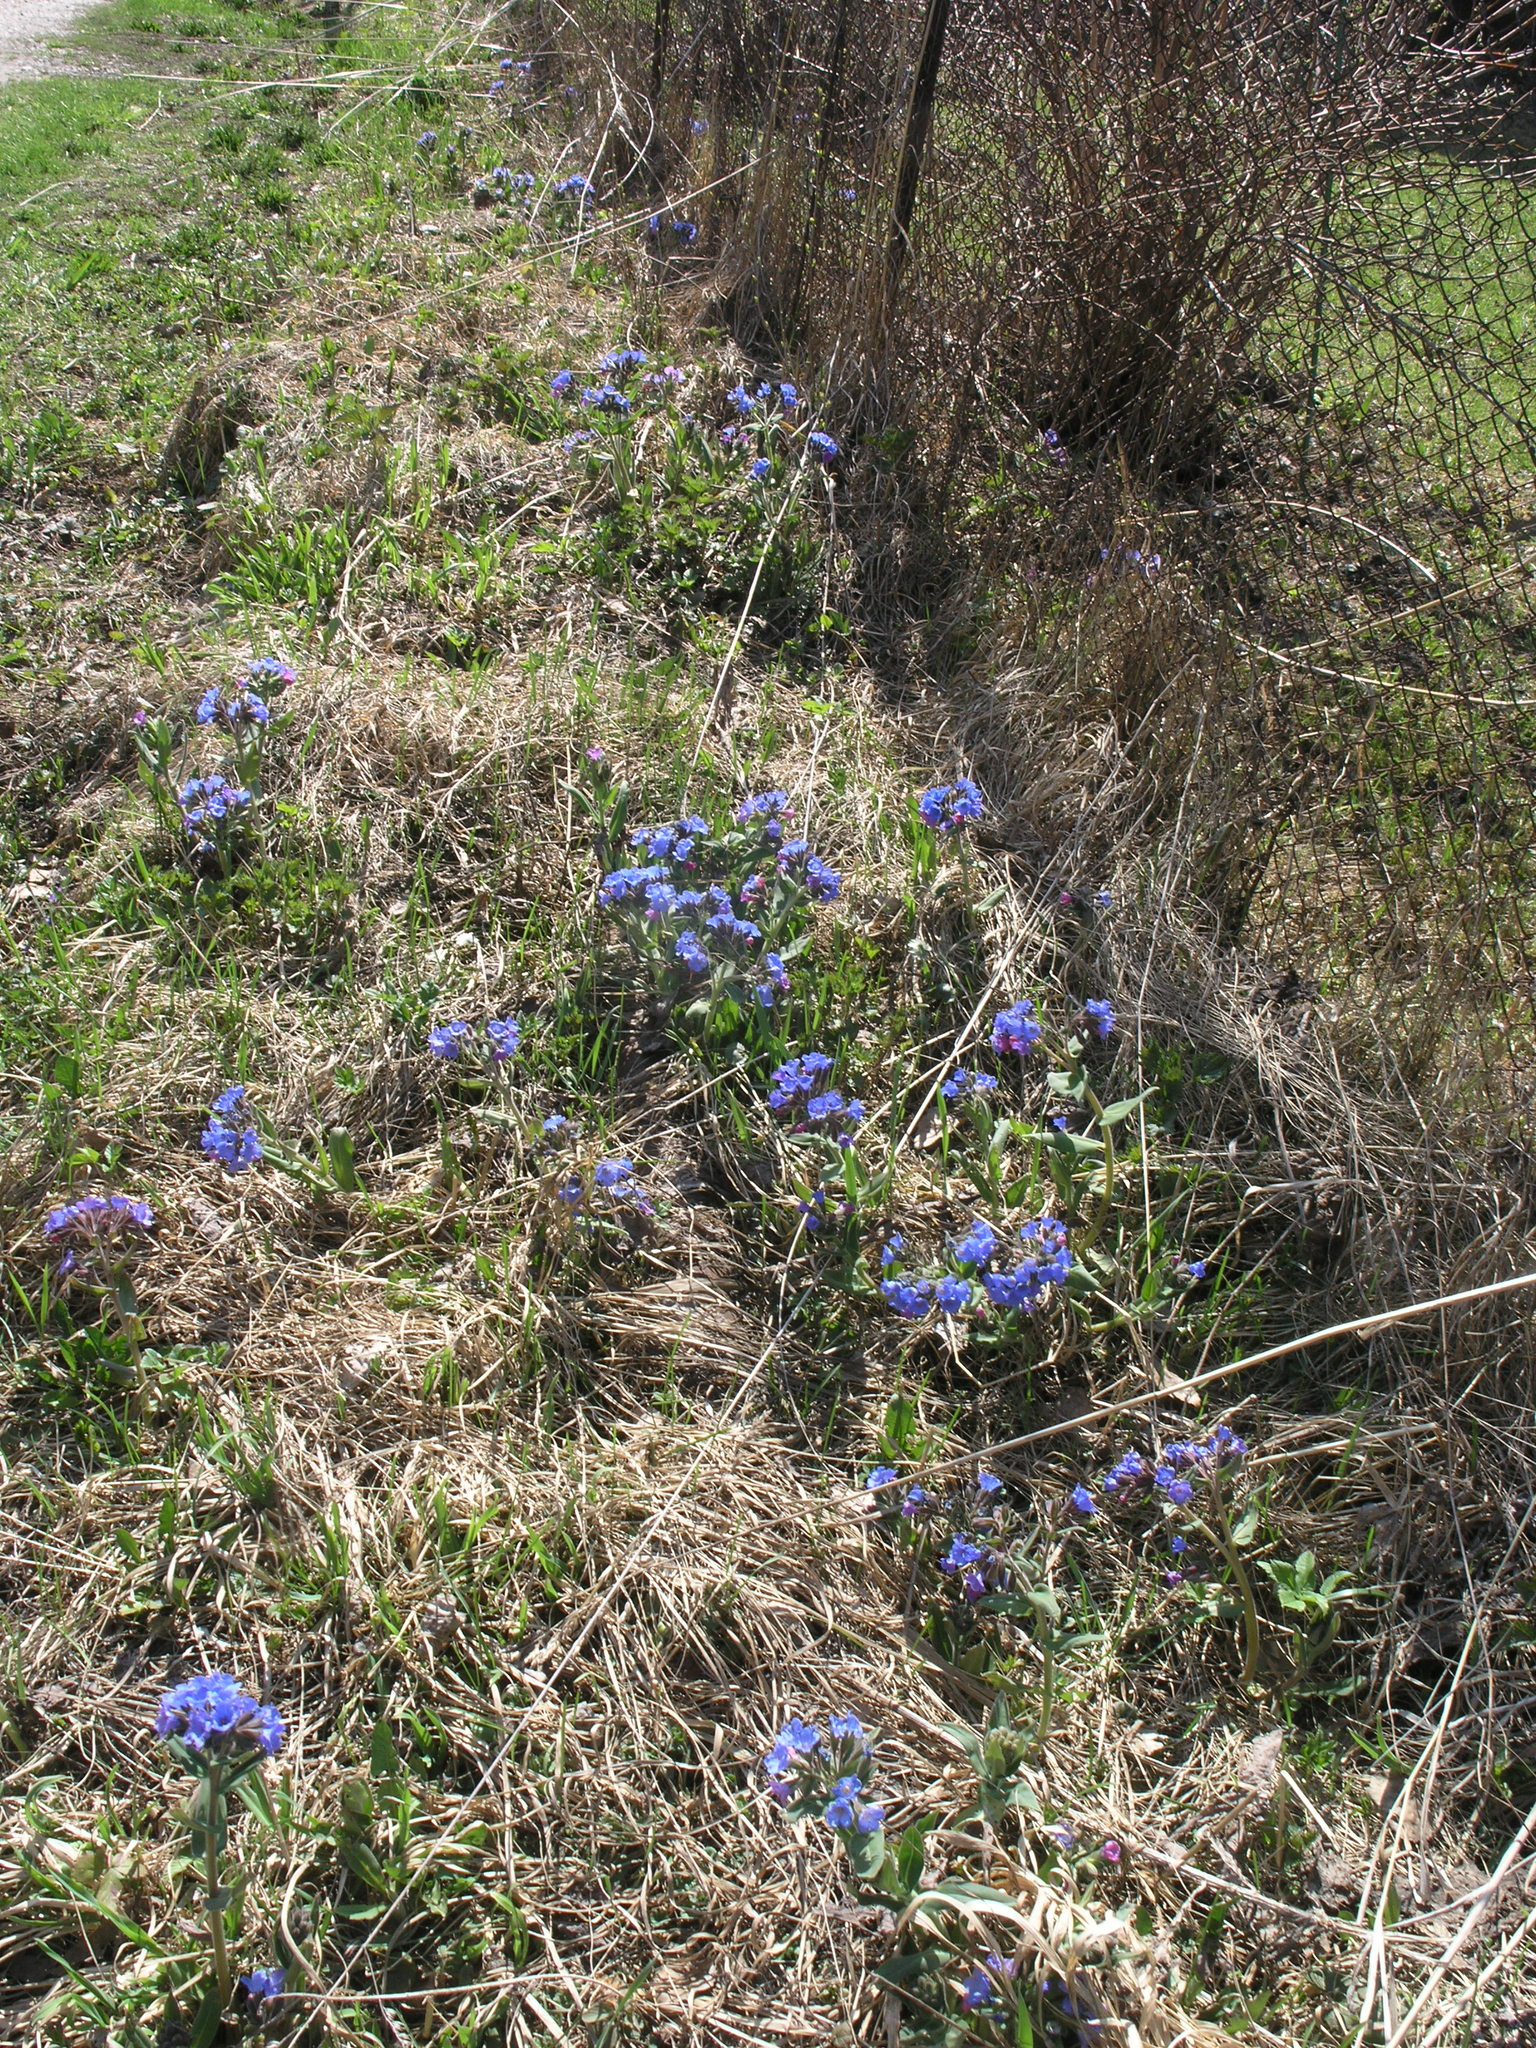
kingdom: Plantae
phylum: Tracheophyta
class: Magnoliopsida
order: Boraginales
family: Boraginaceae
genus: Pulmonaria
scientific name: Pulmonaria mollis
